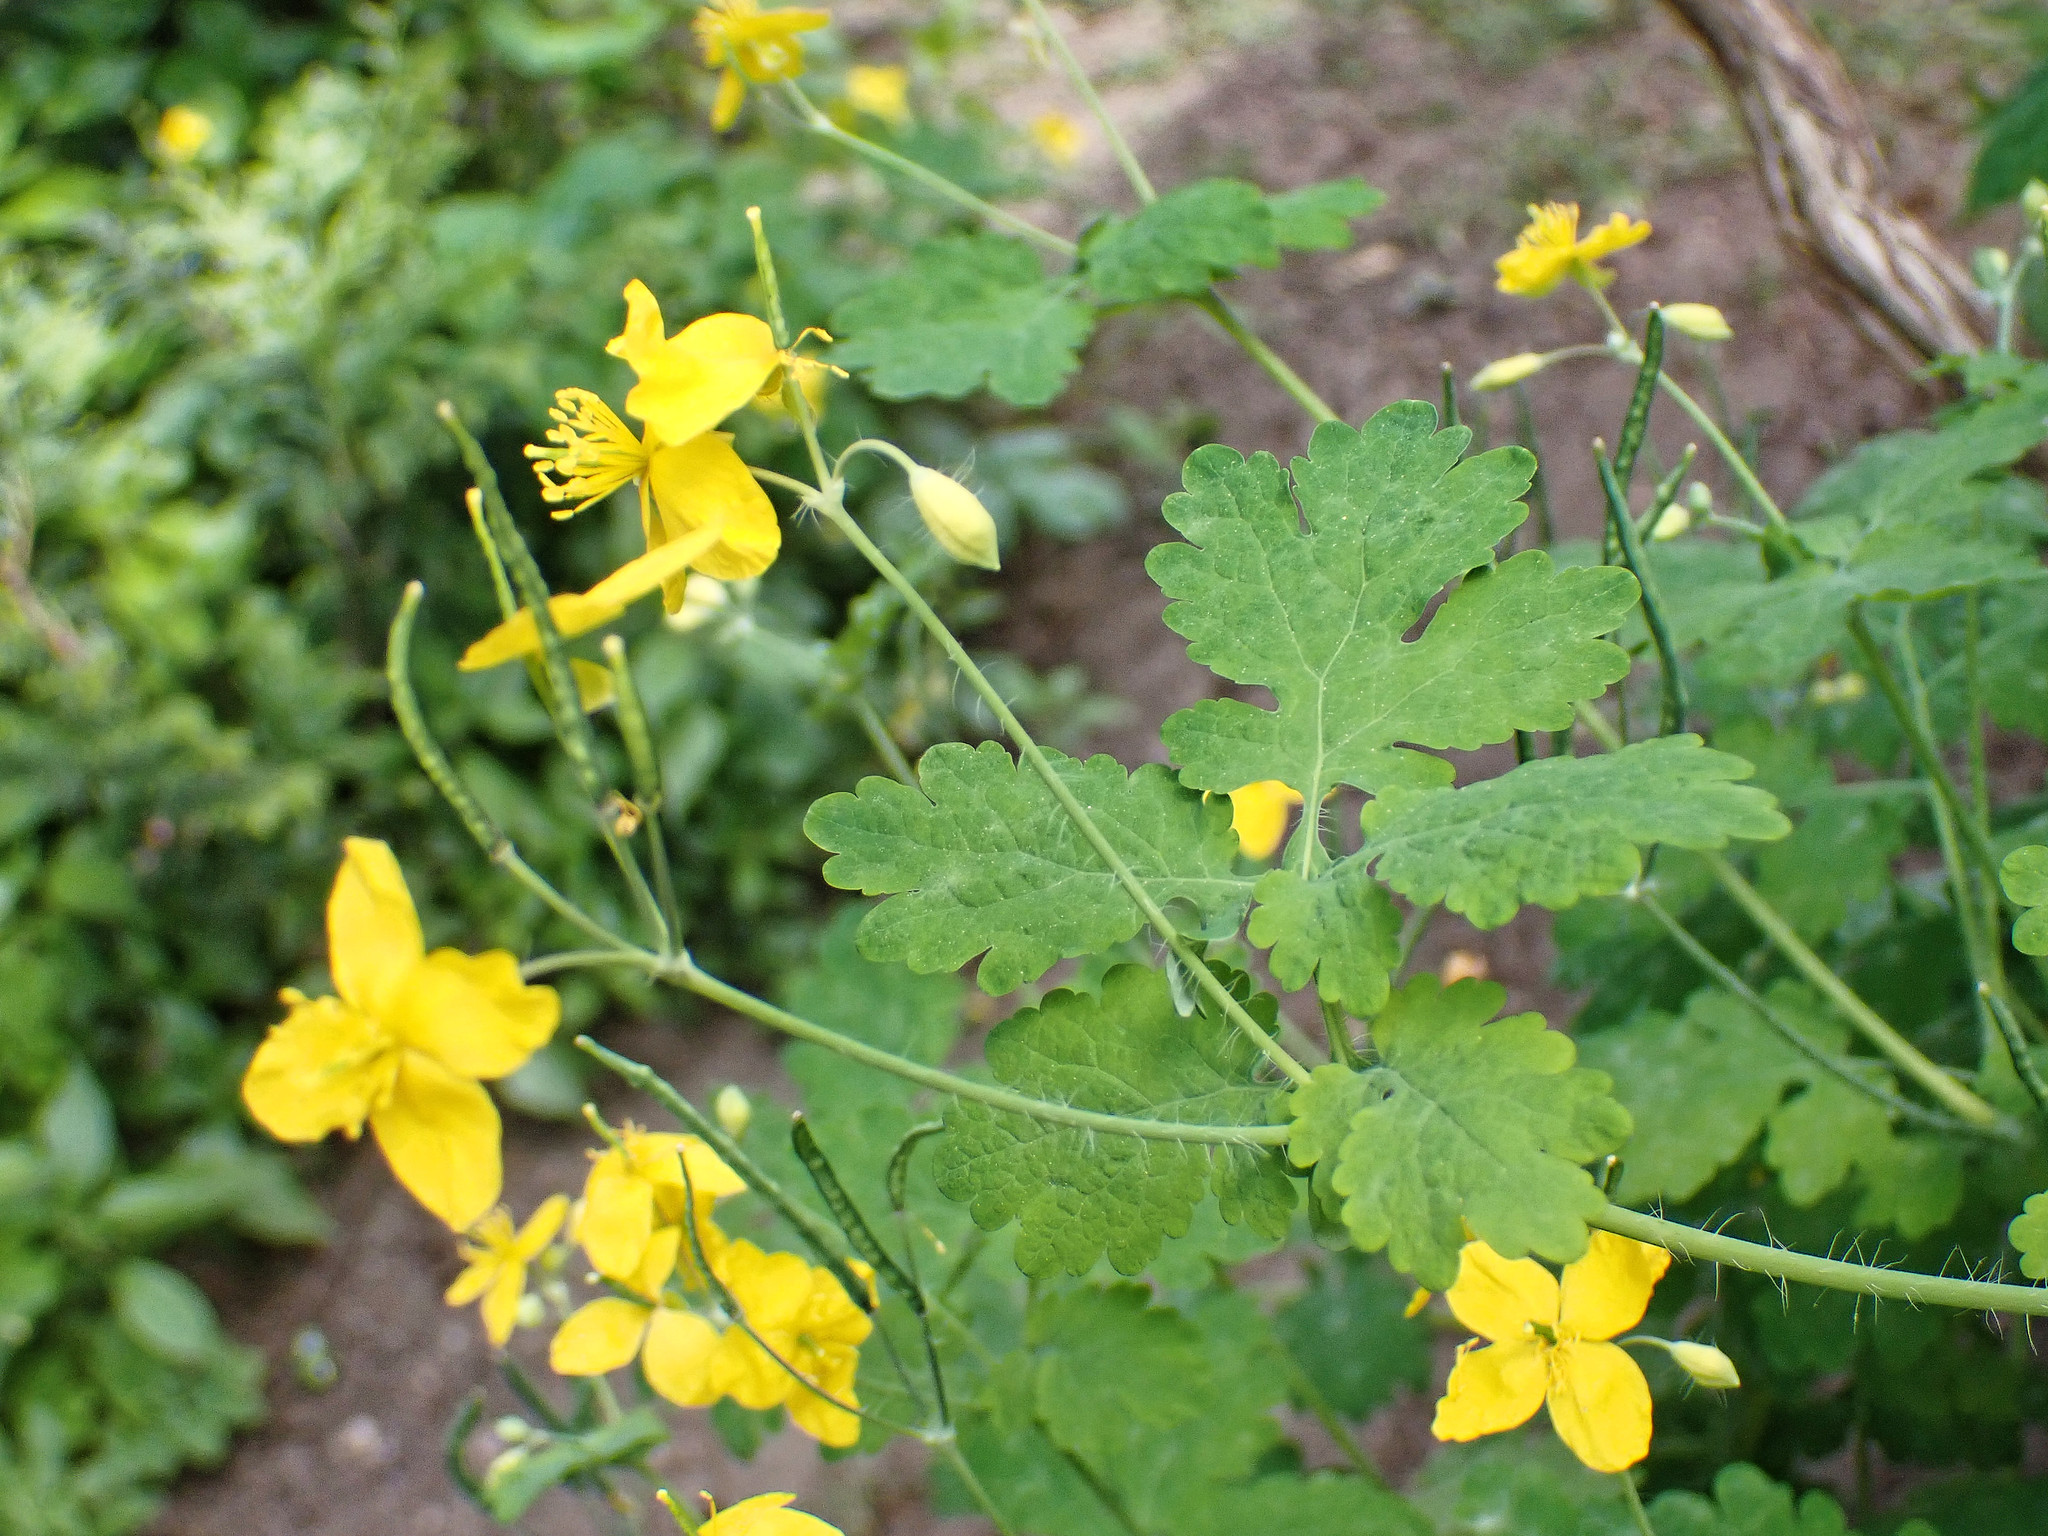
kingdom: Plantae
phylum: Tracheophyta
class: Magnoliopsida
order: Ranunculales
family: Papaveraceae
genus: Chelidonium
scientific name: Chelidonium majus
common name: Greater celandine
